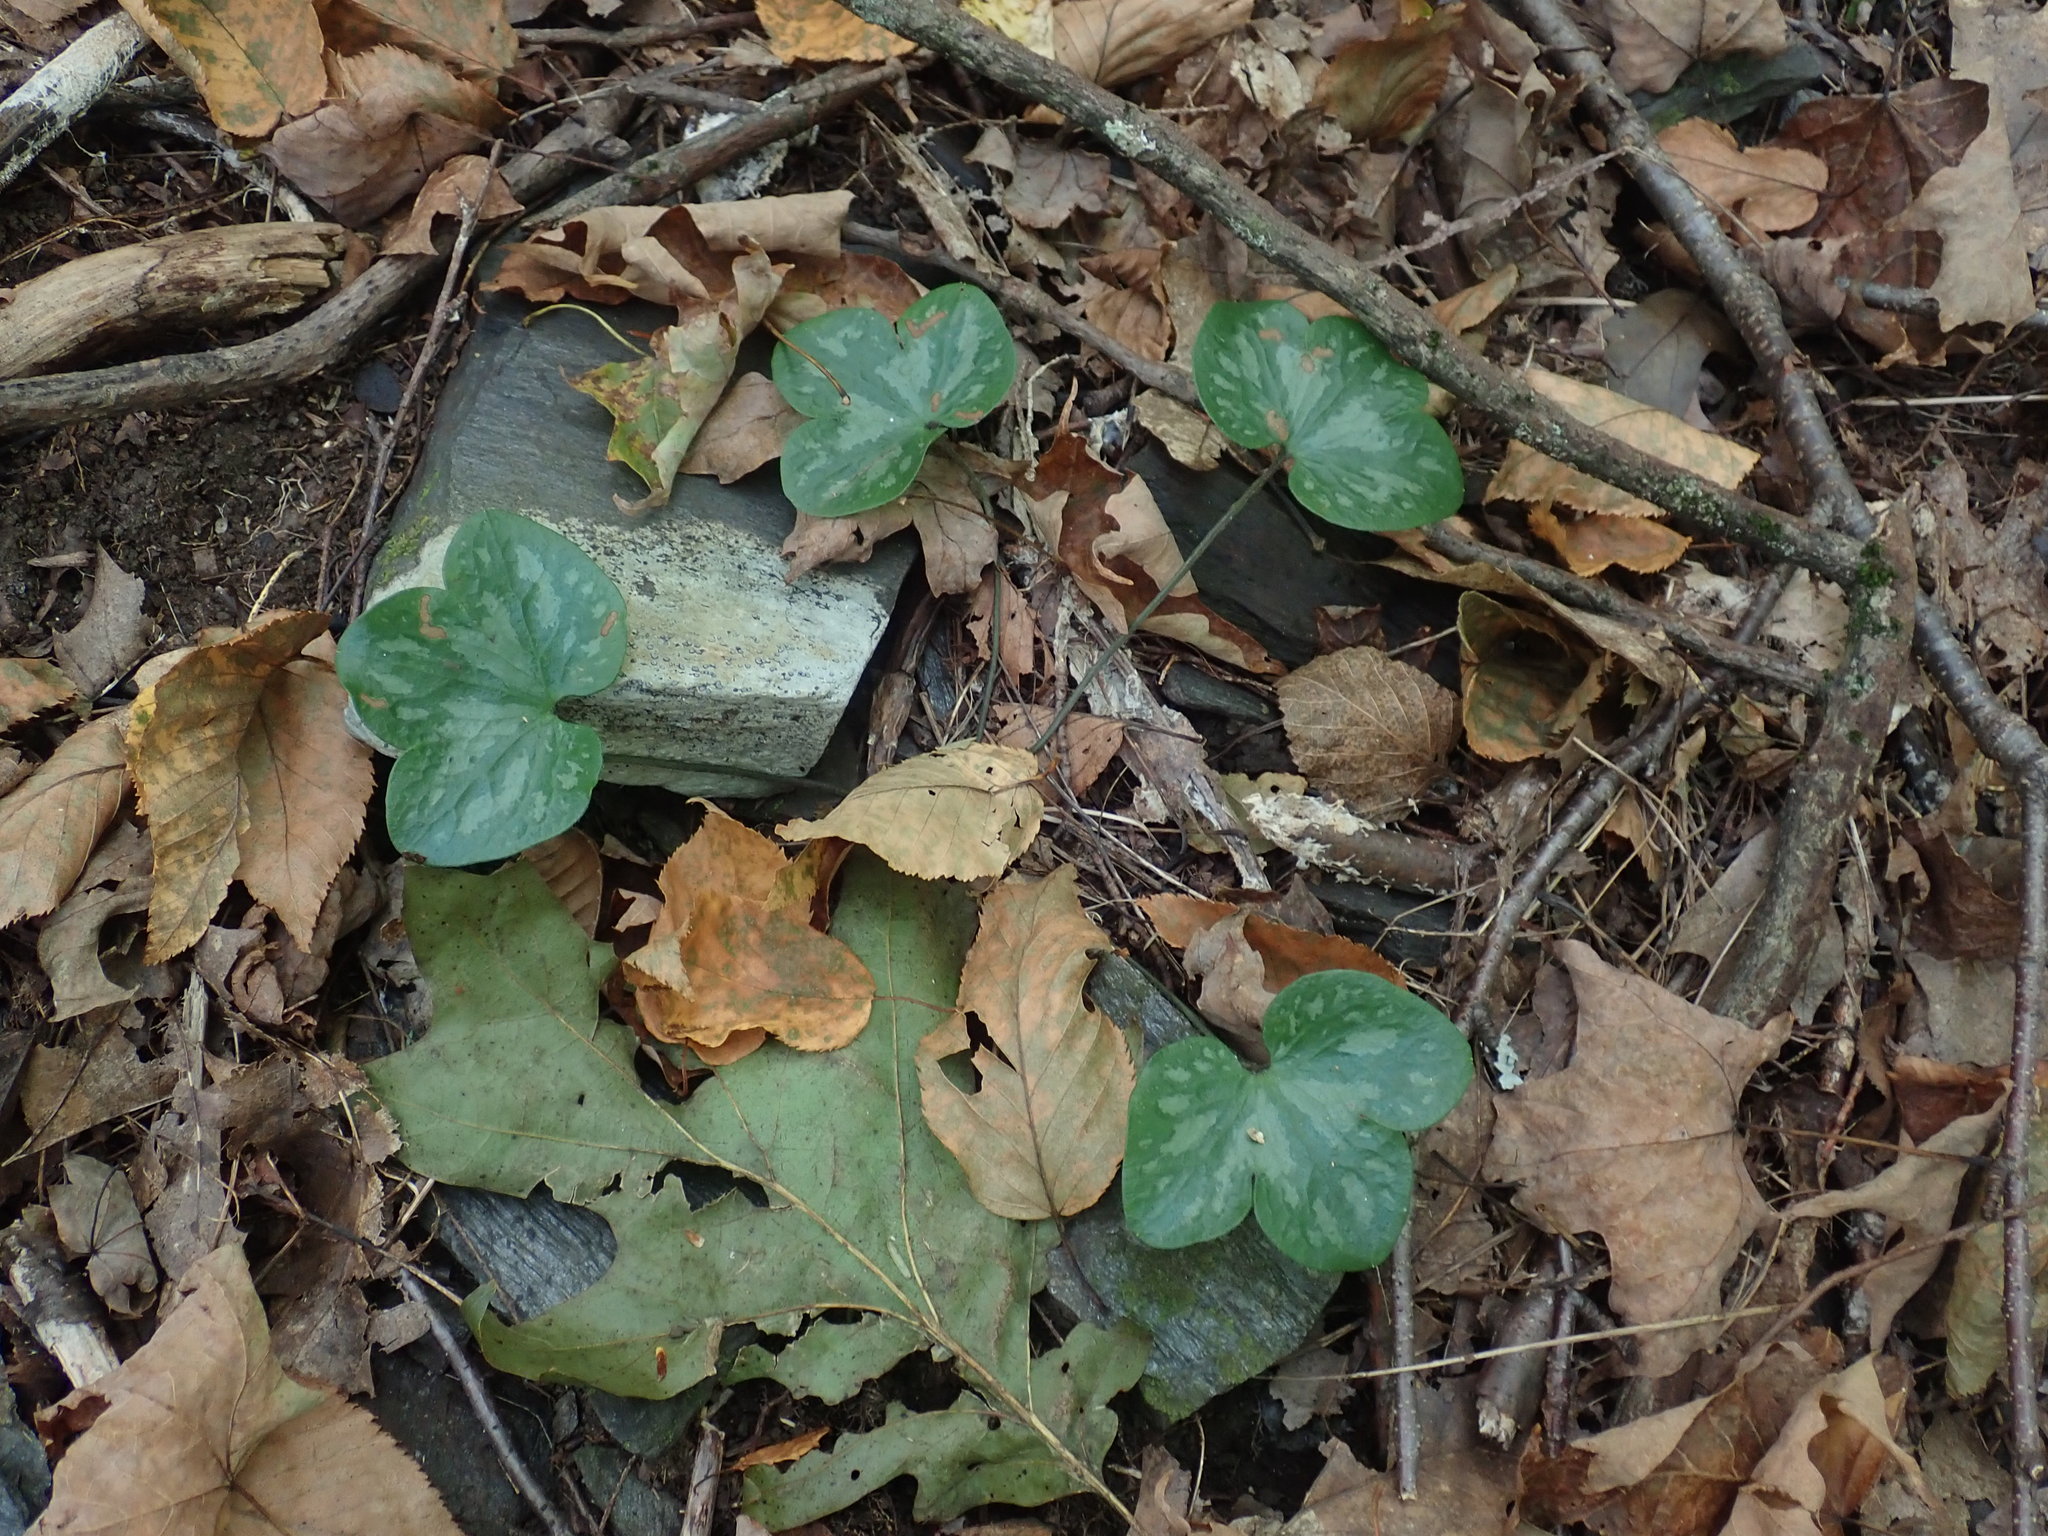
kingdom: Plantae
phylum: Tracheophyta
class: Magnoliopsida
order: Ranunculales
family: Ranunculaceae
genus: Hepatica
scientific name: Hepatica americana
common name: American hepatica
